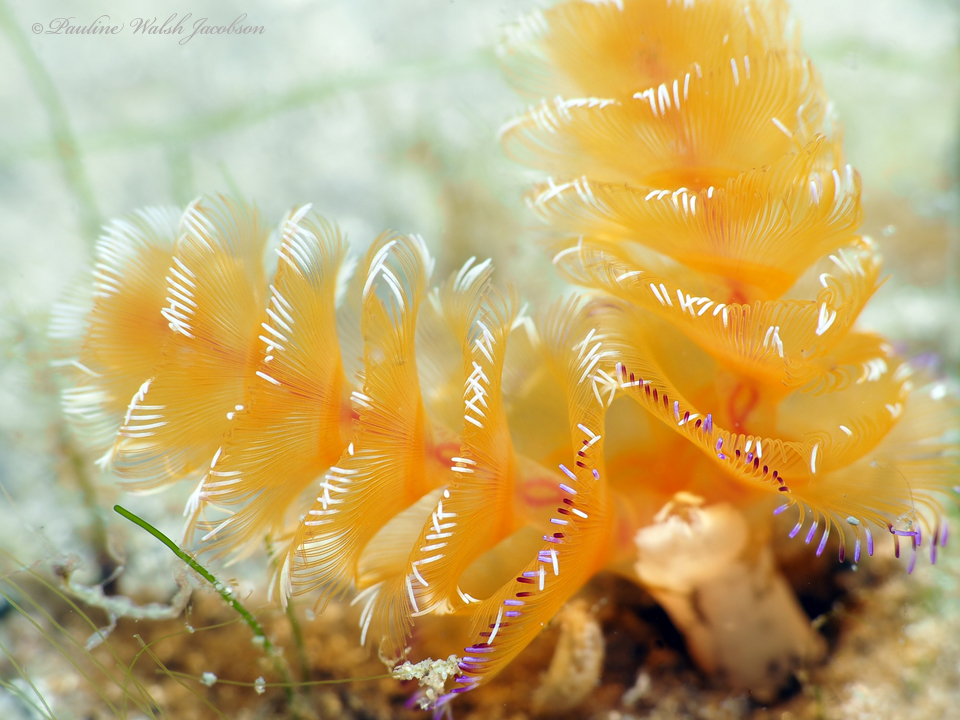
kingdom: Animalia
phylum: Phoronida
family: Phoronidae
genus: Phoronopsis
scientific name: Phoronopsis californica
